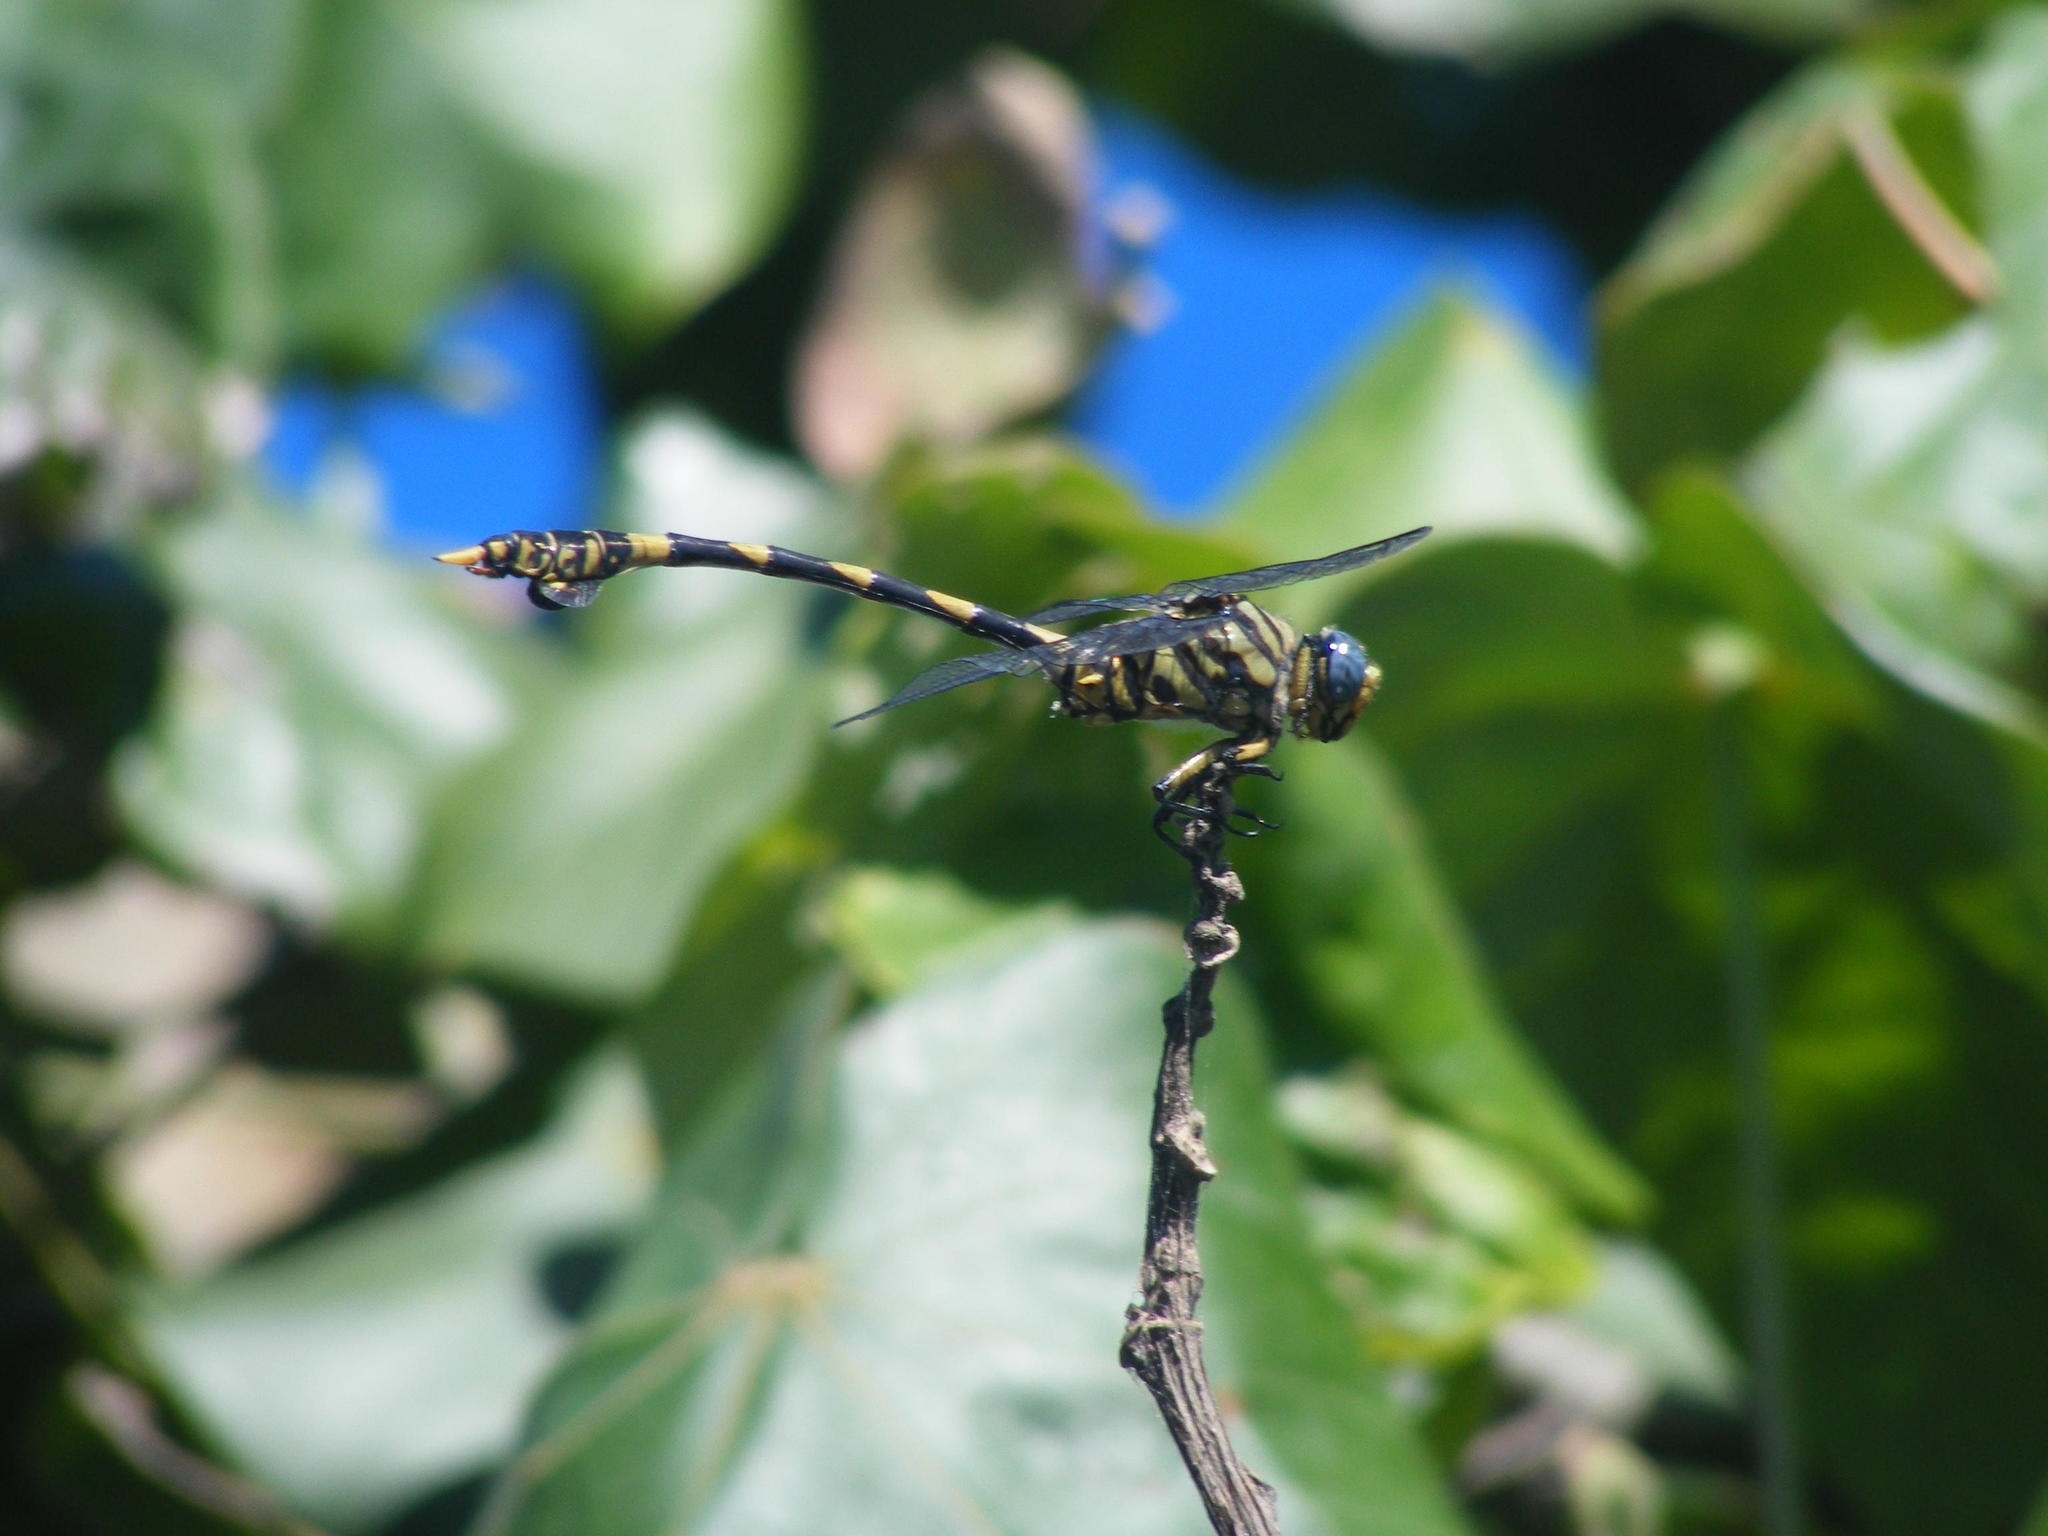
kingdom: Animalia
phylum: Arthropoda
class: Insecta
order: Odonata
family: Gomphidae
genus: Ictinogomphus
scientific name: Ictinogomphus ferox
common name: Common tiger
